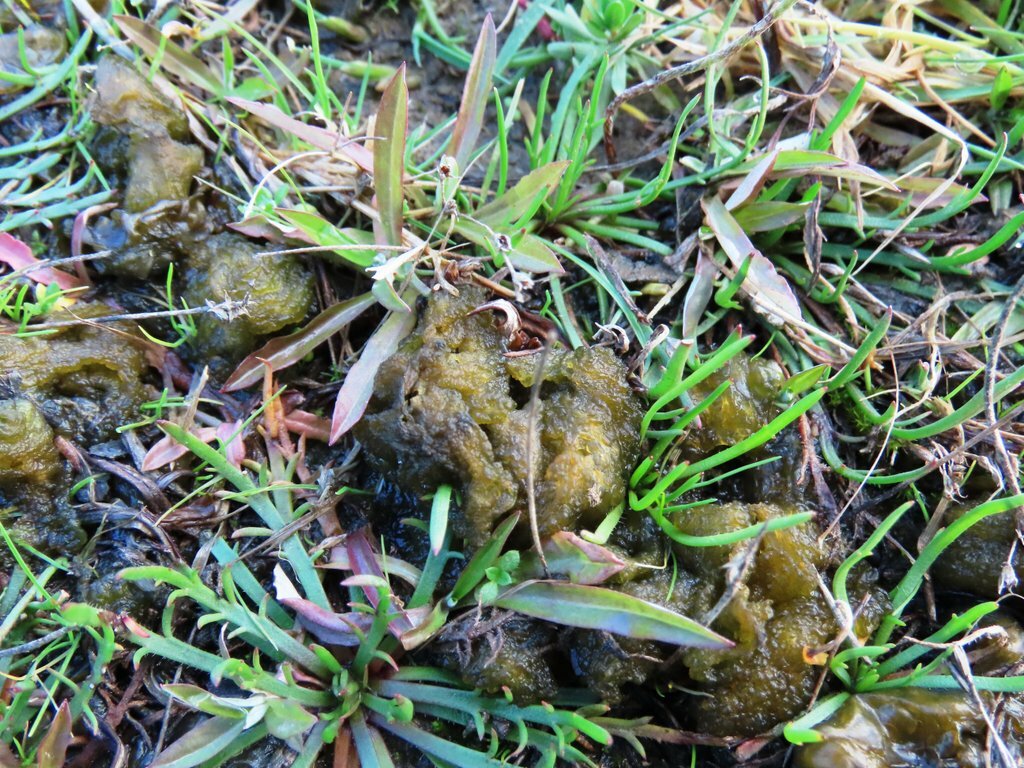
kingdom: Bacteria
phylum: Cyanobacteria
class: Cyanobacteriia
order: Cyanobacteriales
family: Nostocaceae
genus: Nostoc
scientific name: Nostoc commune
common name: Star jelly
